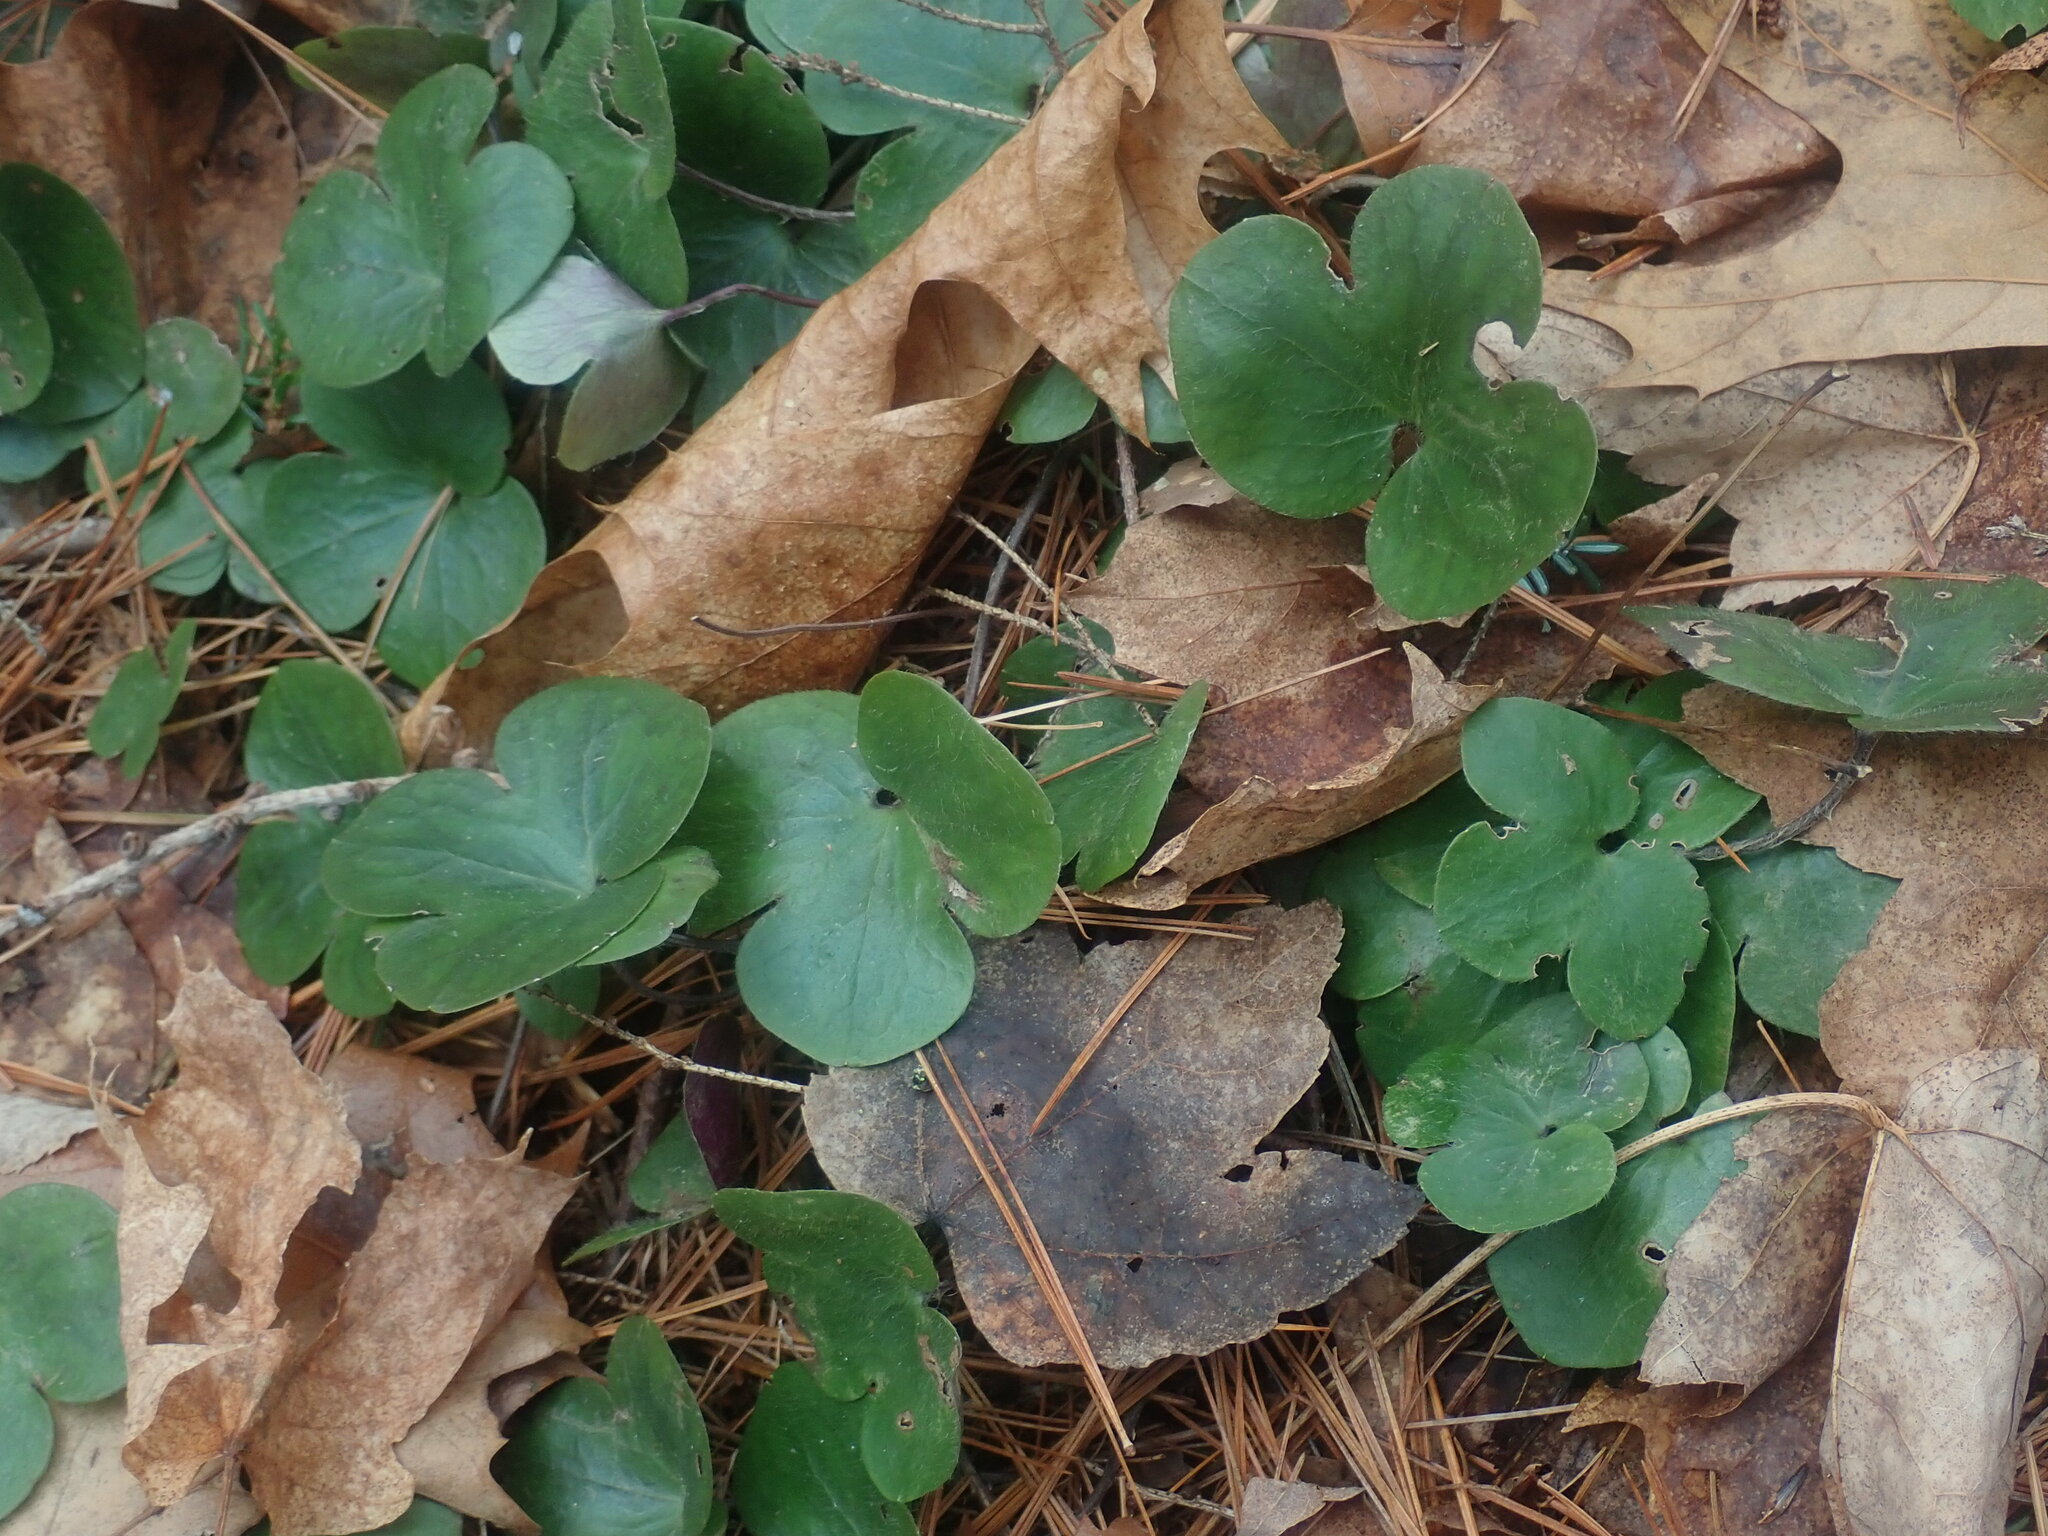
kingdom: Plantae
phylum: Tracheophyta
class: Magnoliopsida
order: Ranunculales
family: Ranunculaceae
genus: Hepatica
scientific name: Hepatica americana
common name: American hepatica
